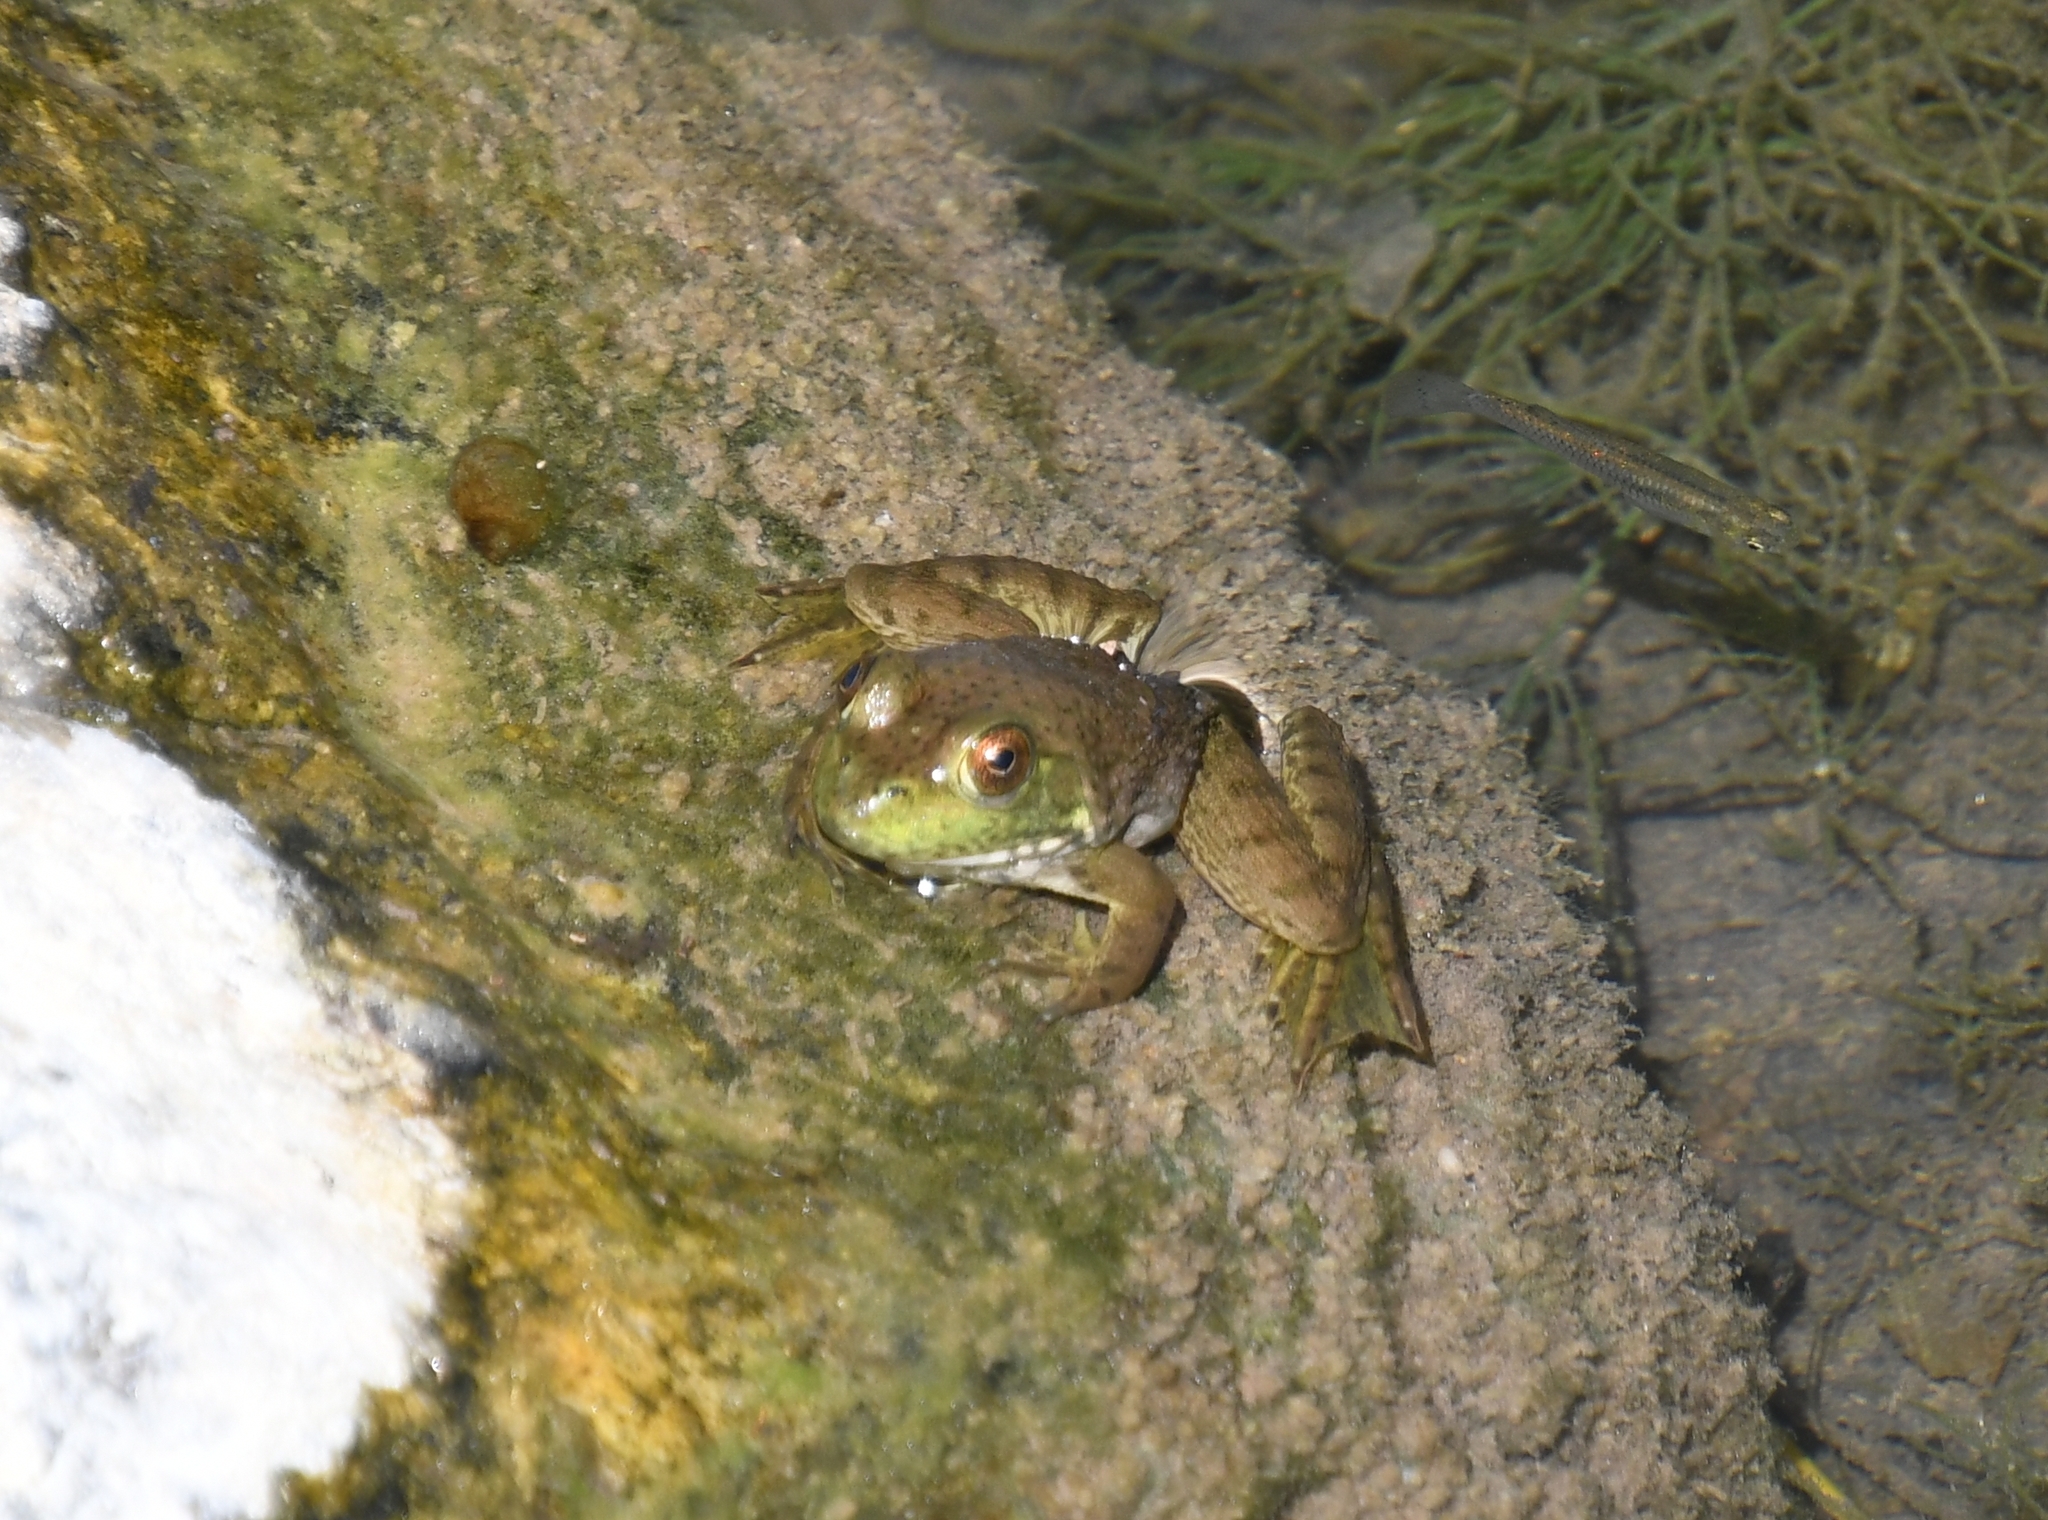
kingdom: Animalia
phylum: Chordata
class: Amphibia
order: Anura
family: Ranidae
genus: Lithobates
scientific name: Lithobates catesbeianus
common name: American bullfrog
